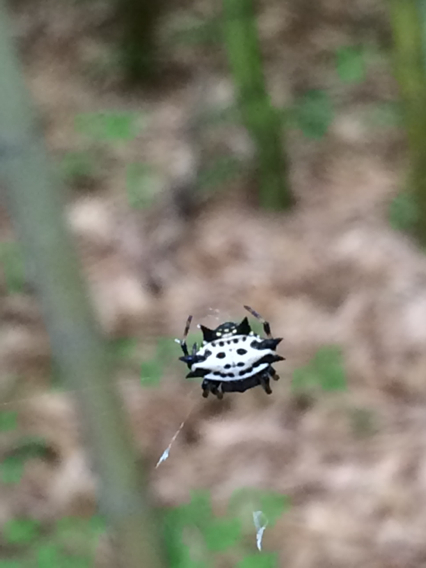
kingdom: Animalia
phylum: Arthropoda
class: Arachnida
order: Araneae
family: Araneidae
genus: Gasteracantha
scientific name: Gasteracantha cancriformis
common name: Orb weavers
